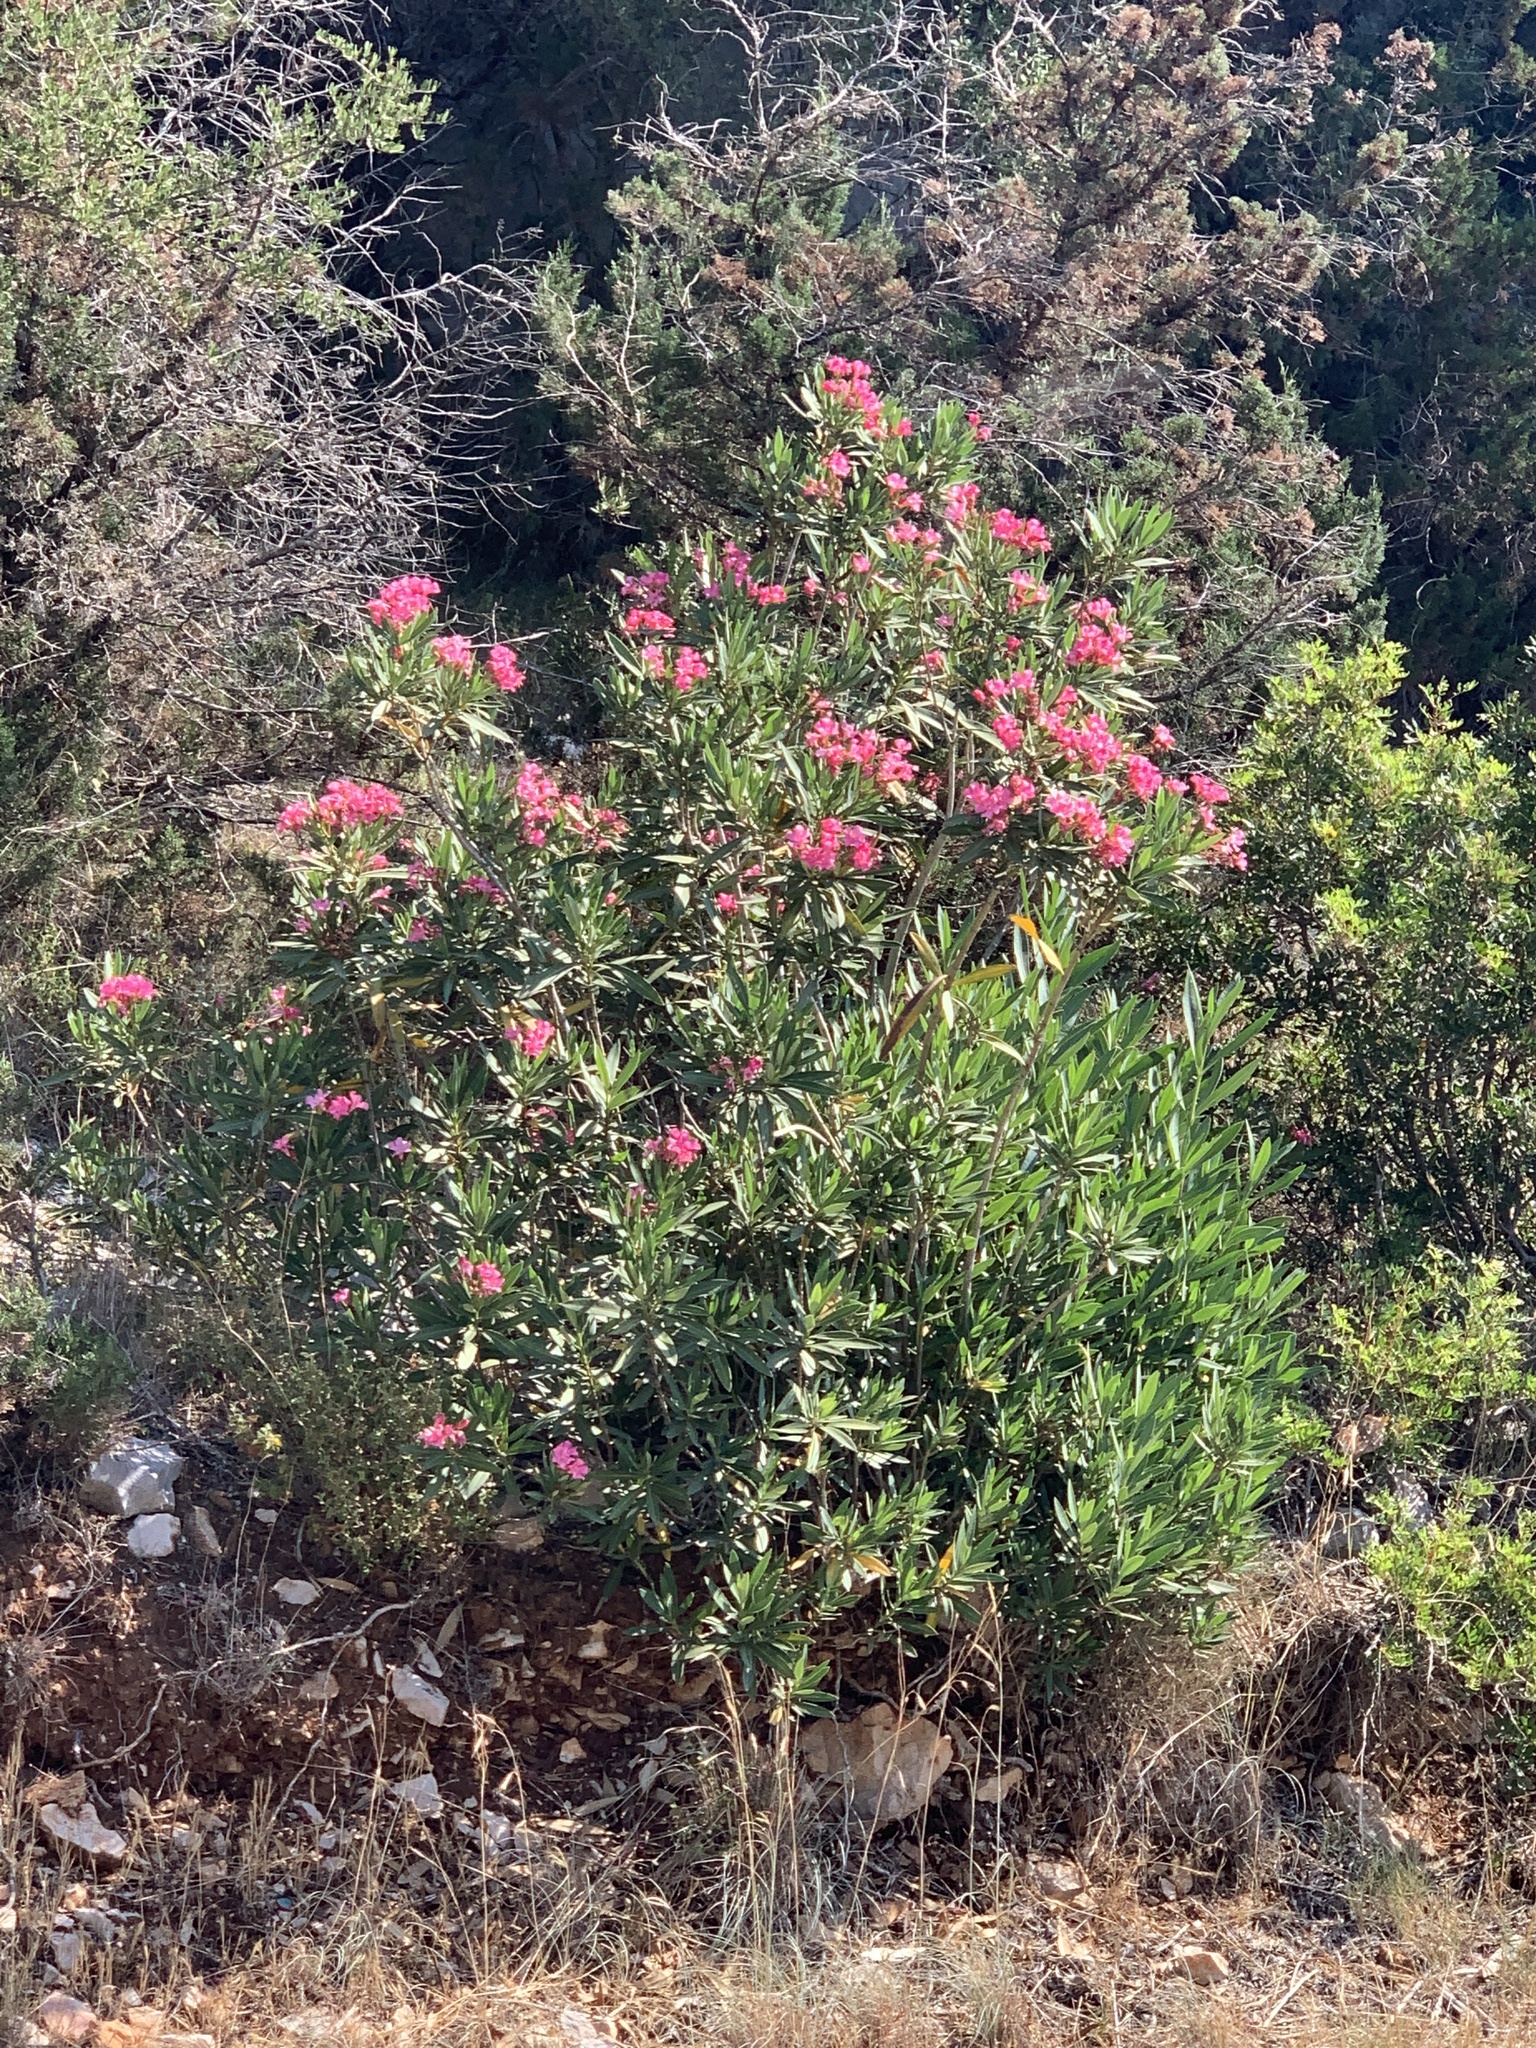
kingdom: Plantae
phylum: Tracheophyta
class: Magnoliopsida
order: Gentianales
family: Apocynaceae
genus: Nerium
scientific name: Nerium oleander
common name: Oleander
